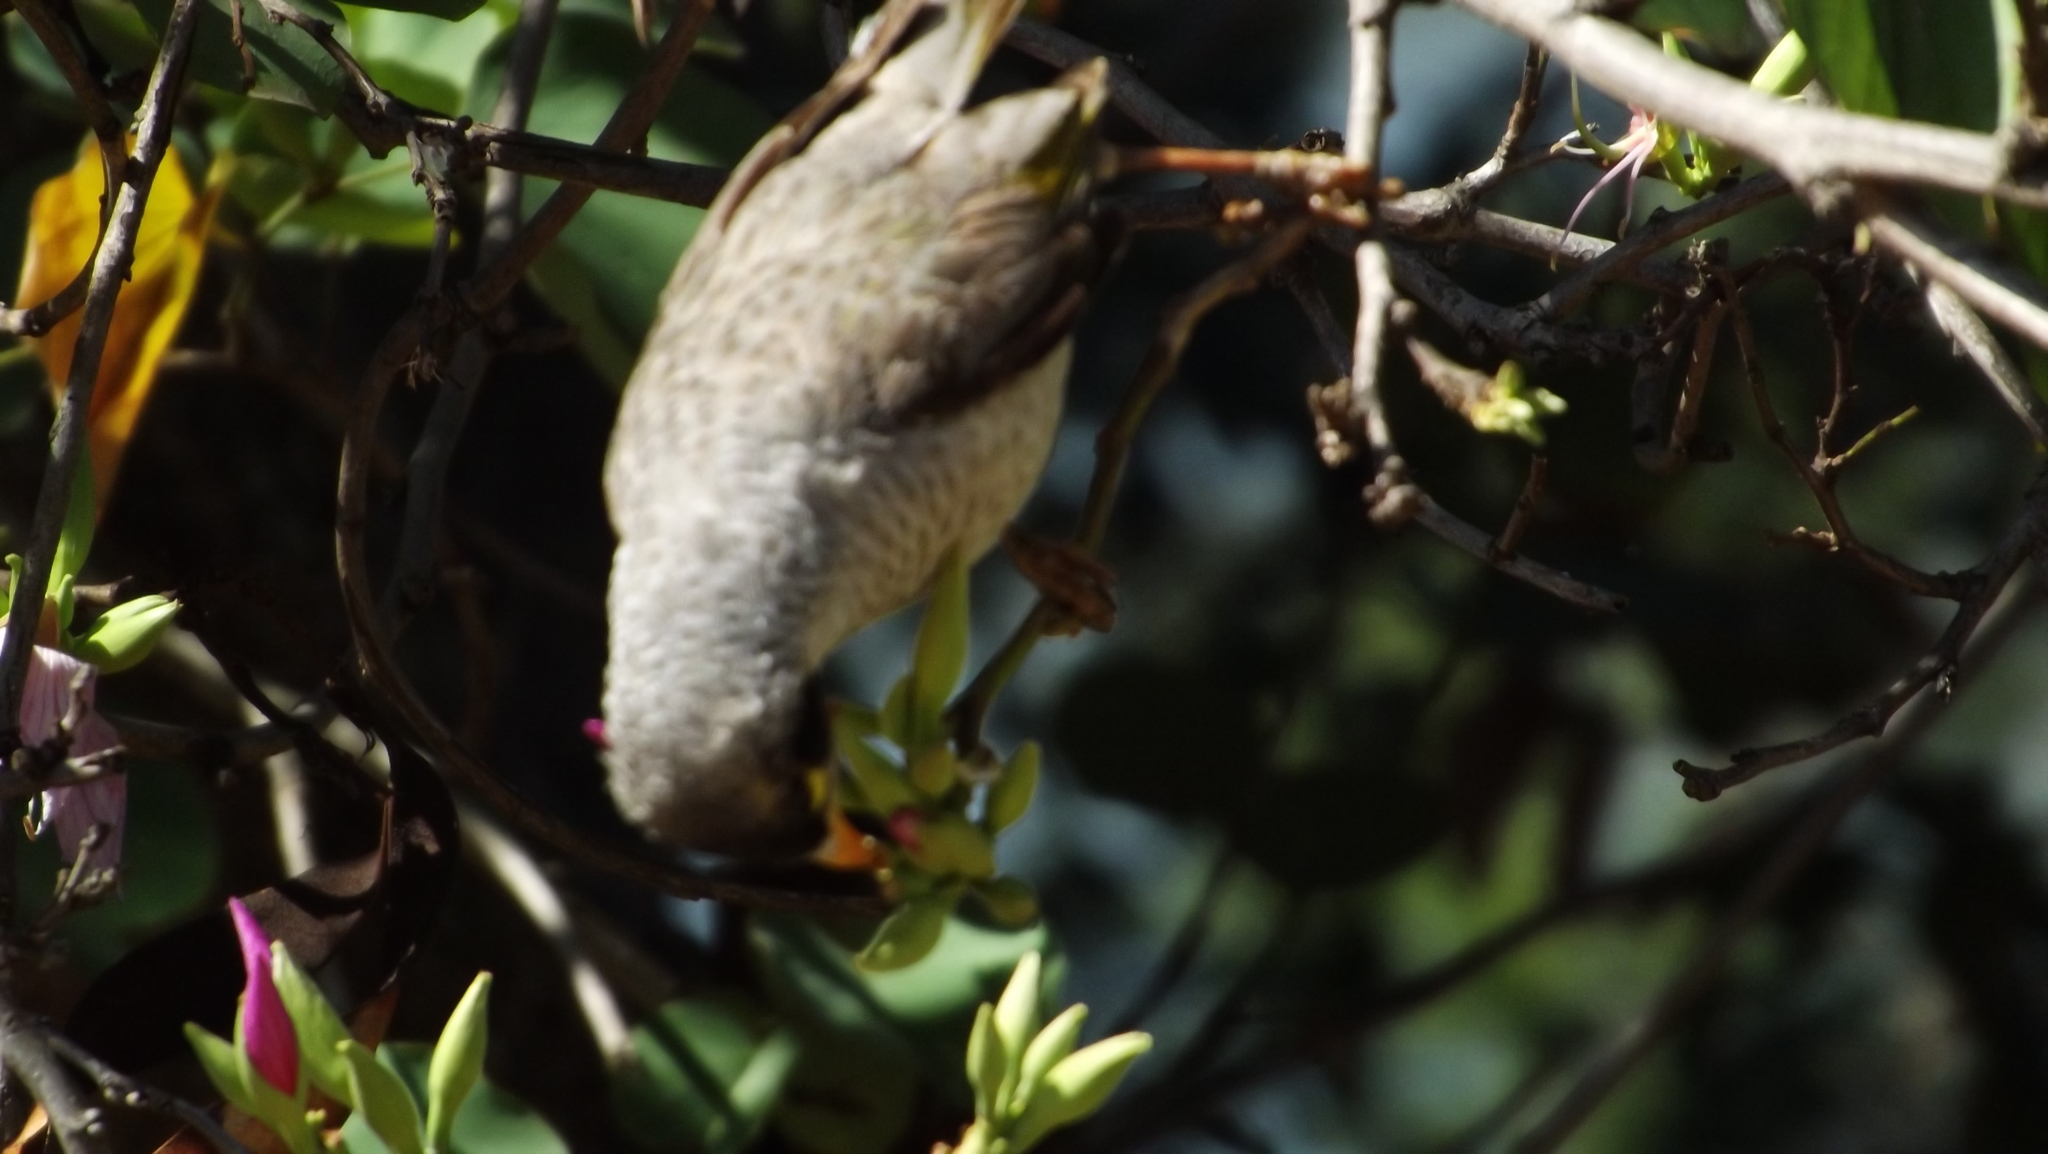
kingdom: Animalia
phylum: Chordata
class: Aves
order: Passeriformes
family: Meliphagidae
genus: Manorina
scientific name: Manorina melanocephala
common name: Noisy miner
